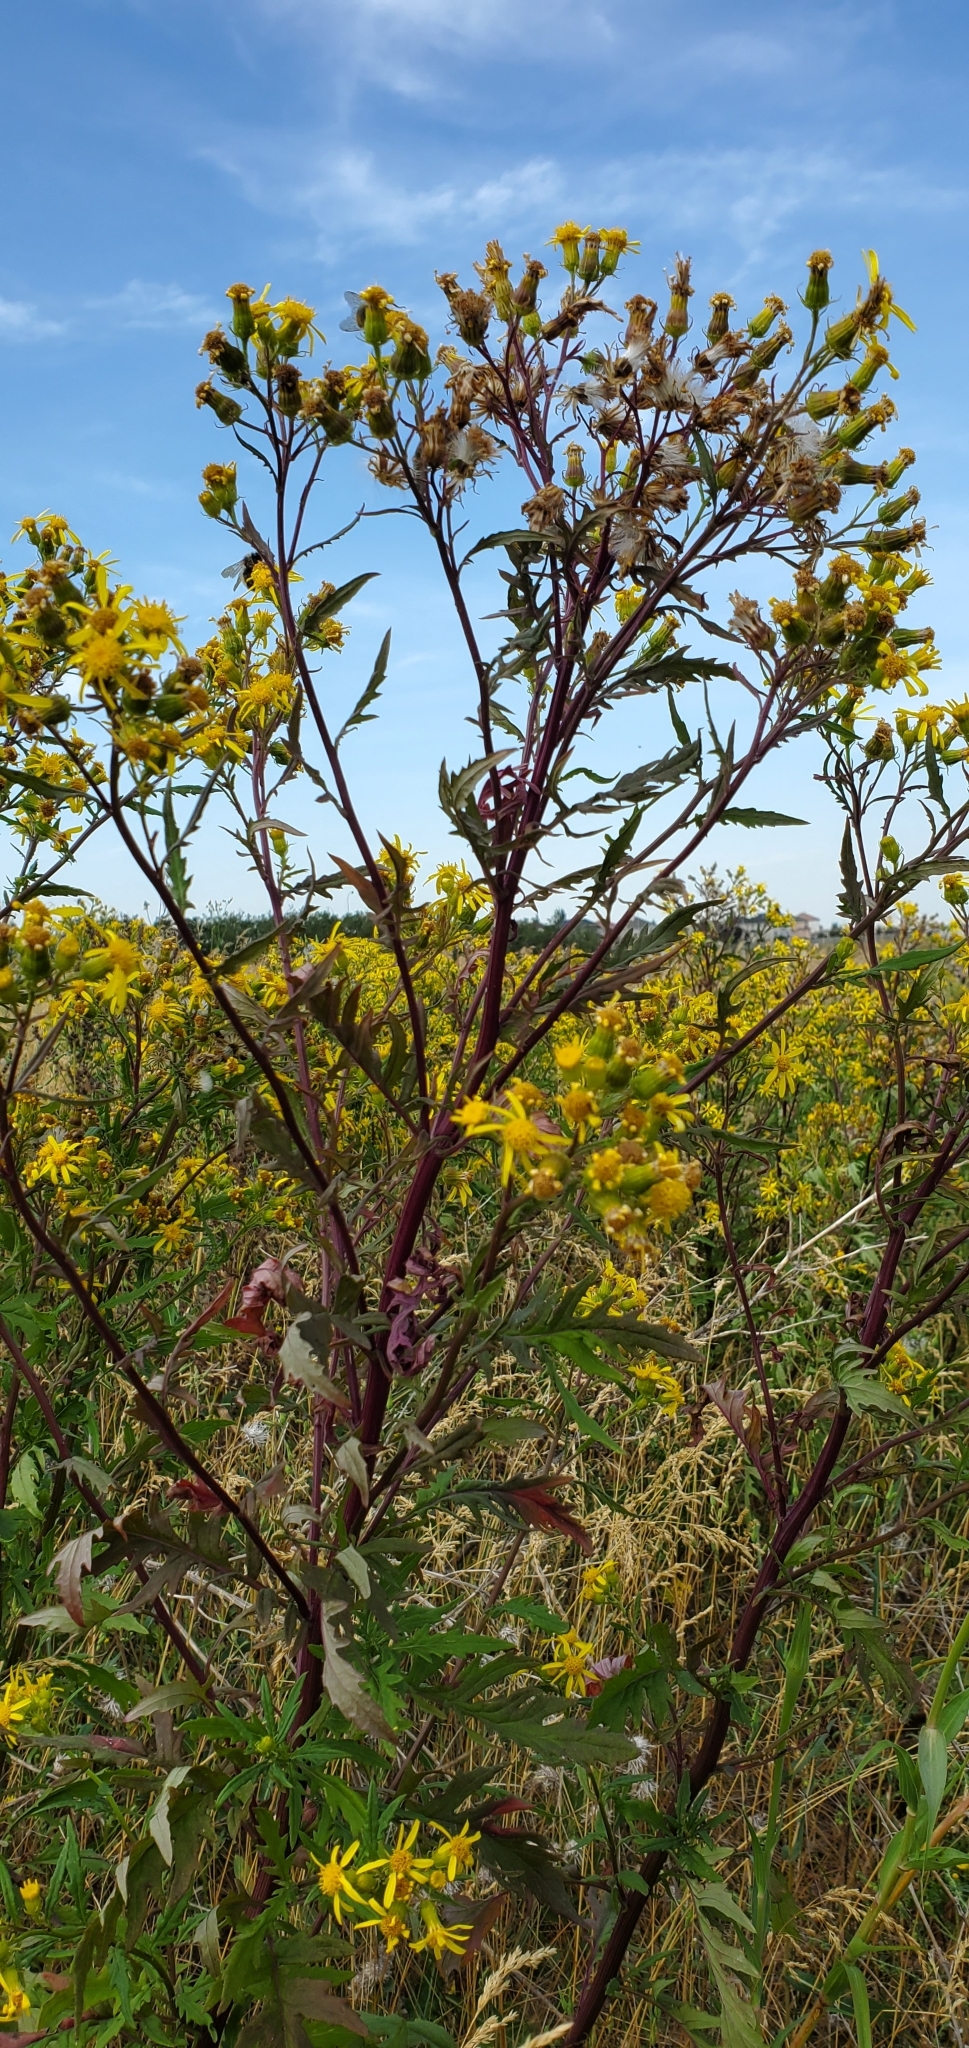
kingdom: Plantae
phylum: Tracheophyta
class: Magnoliopsida
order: Asterales
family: Asteraceae
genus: Senecio
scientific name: Senecio eremophilus
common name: Desert ragwort
